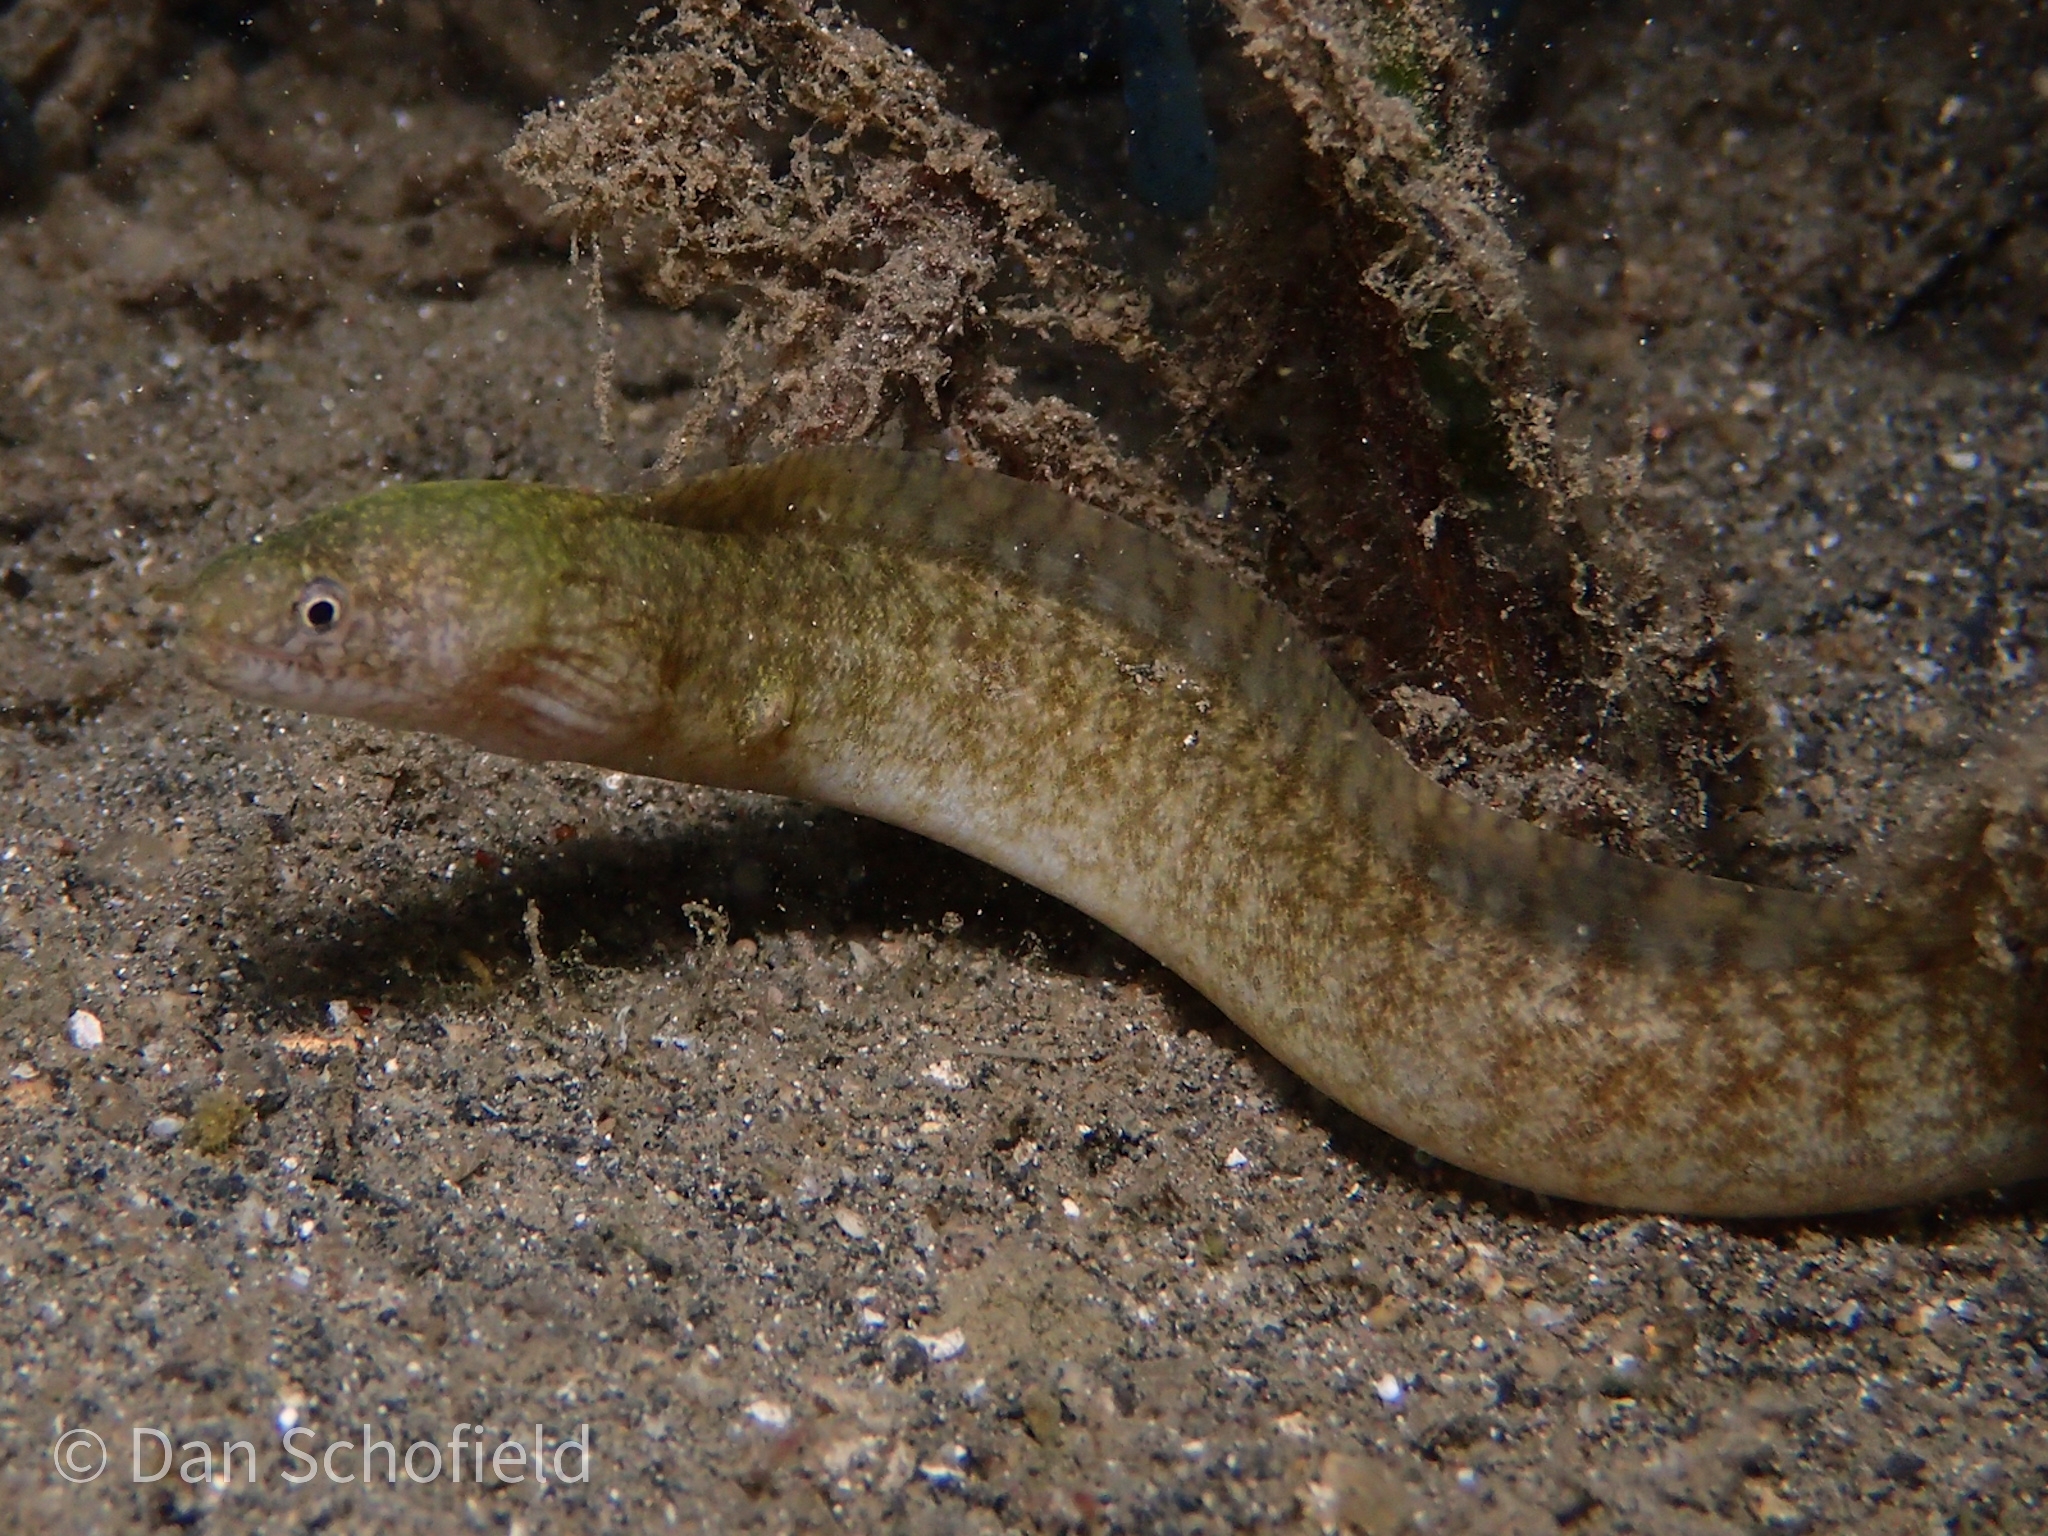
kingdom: Animalia
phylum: Chordata
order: Anguilliformes
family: Muraenidae
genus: Gymnothorax
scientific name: Gymnothorax richardsonii
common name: Richardson's moray
